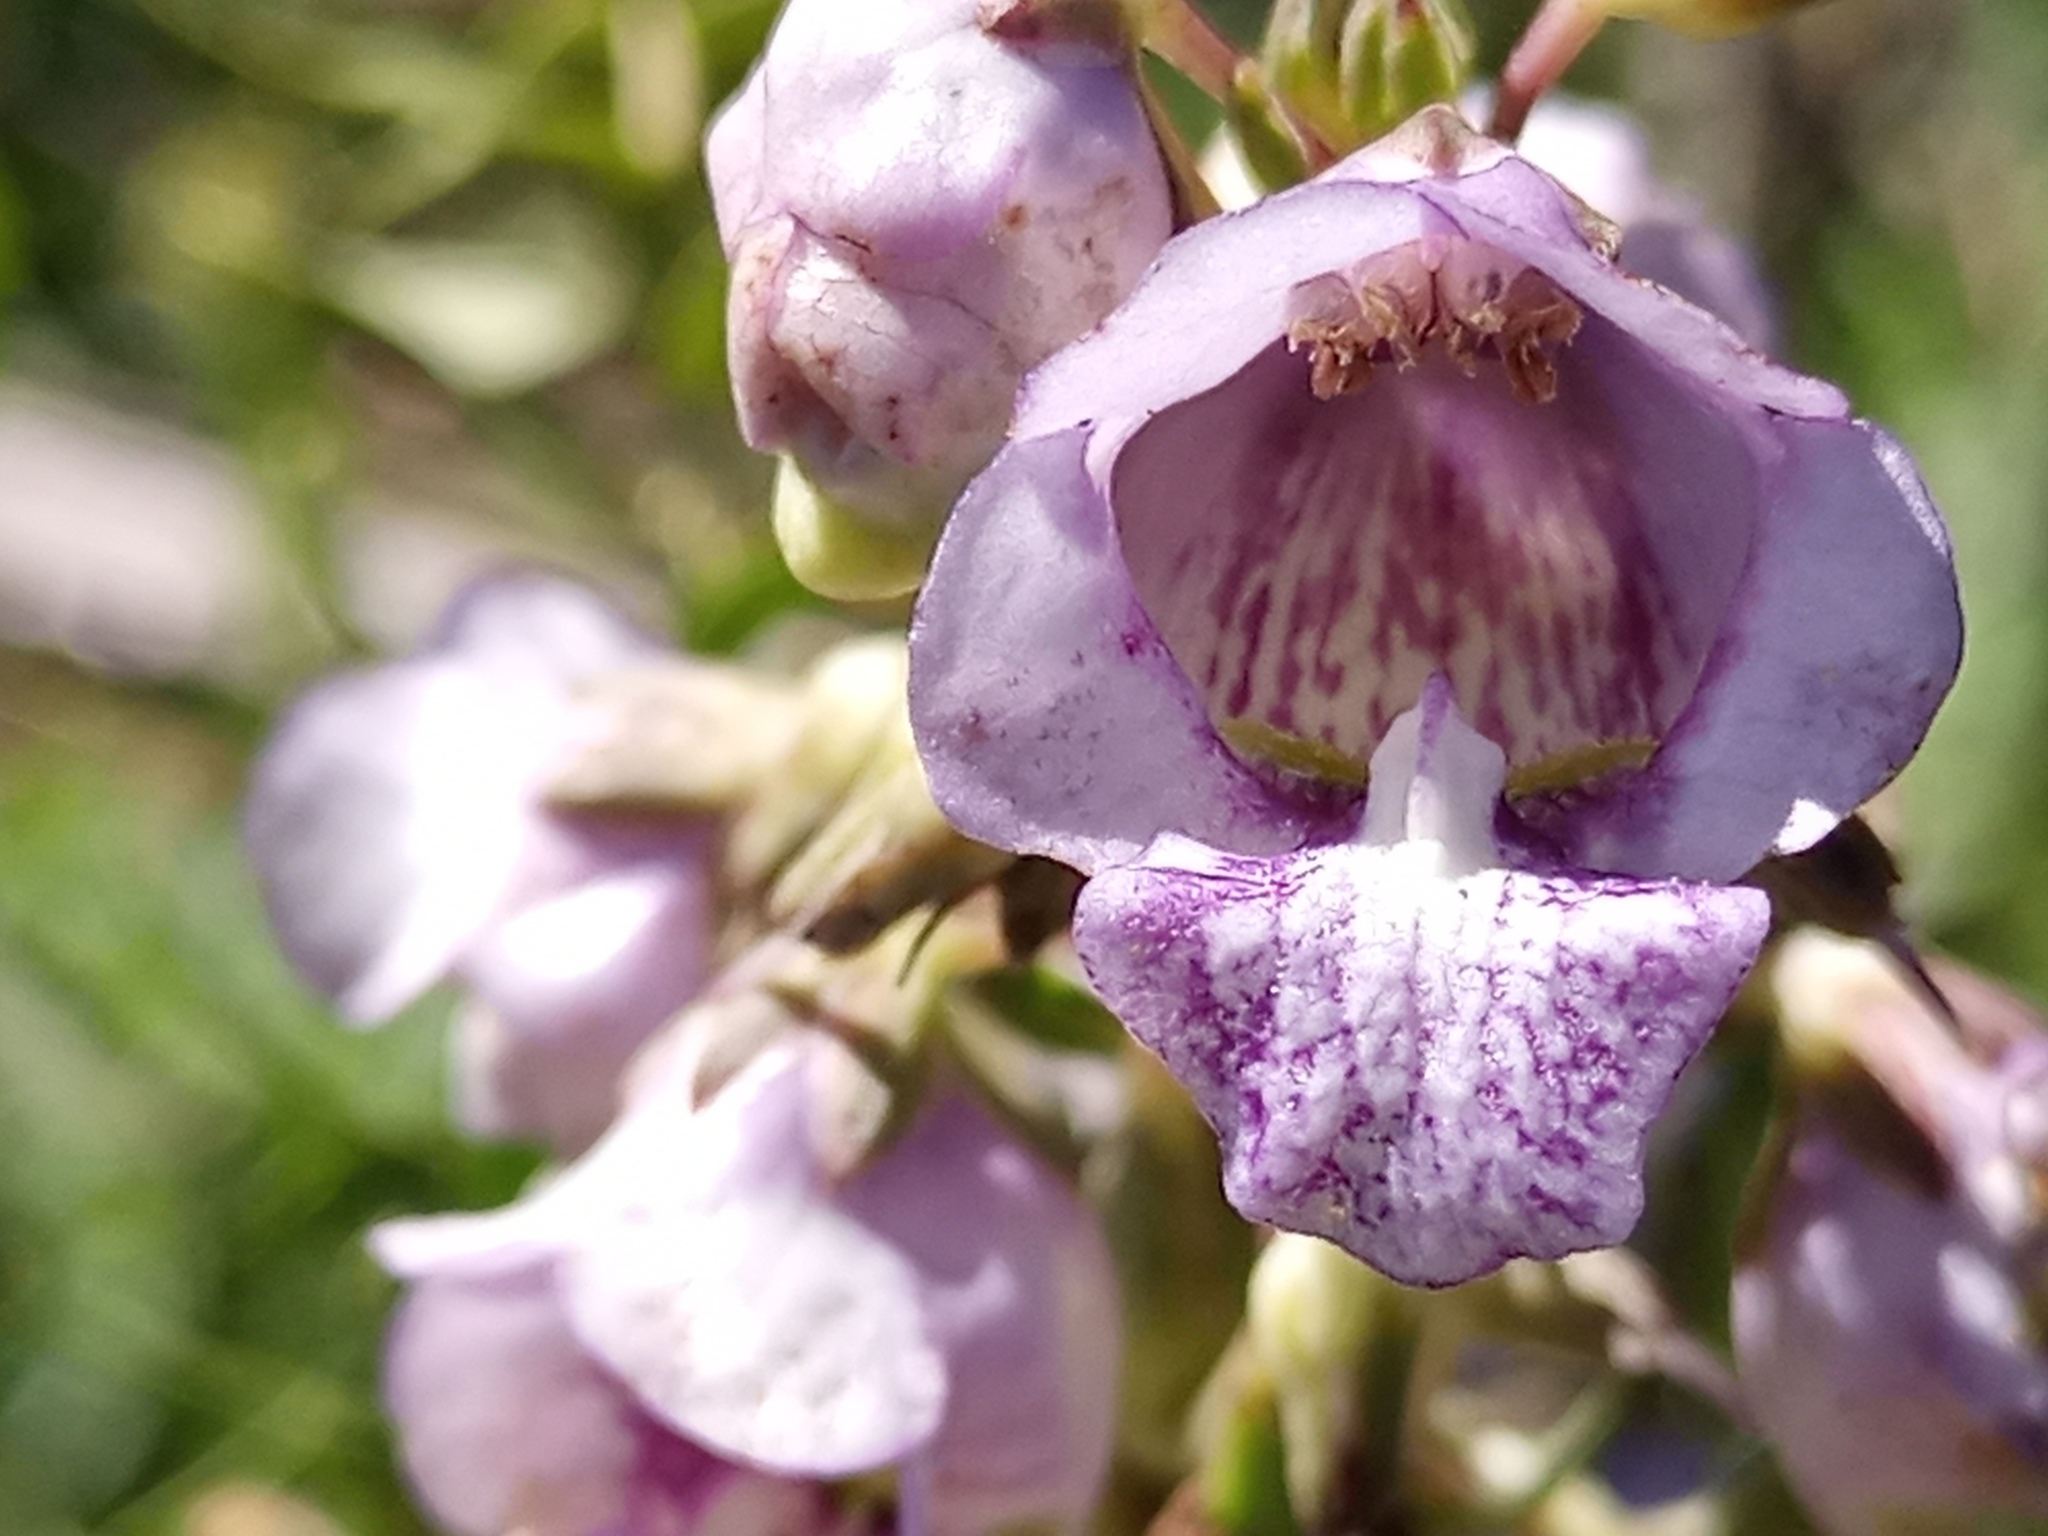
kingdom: Plantae
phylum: Tracheophyta
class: Magnoliopsida
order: Lamiales
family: Plantaginaceae
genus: Angelonia
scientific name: Angelonia integerrima
